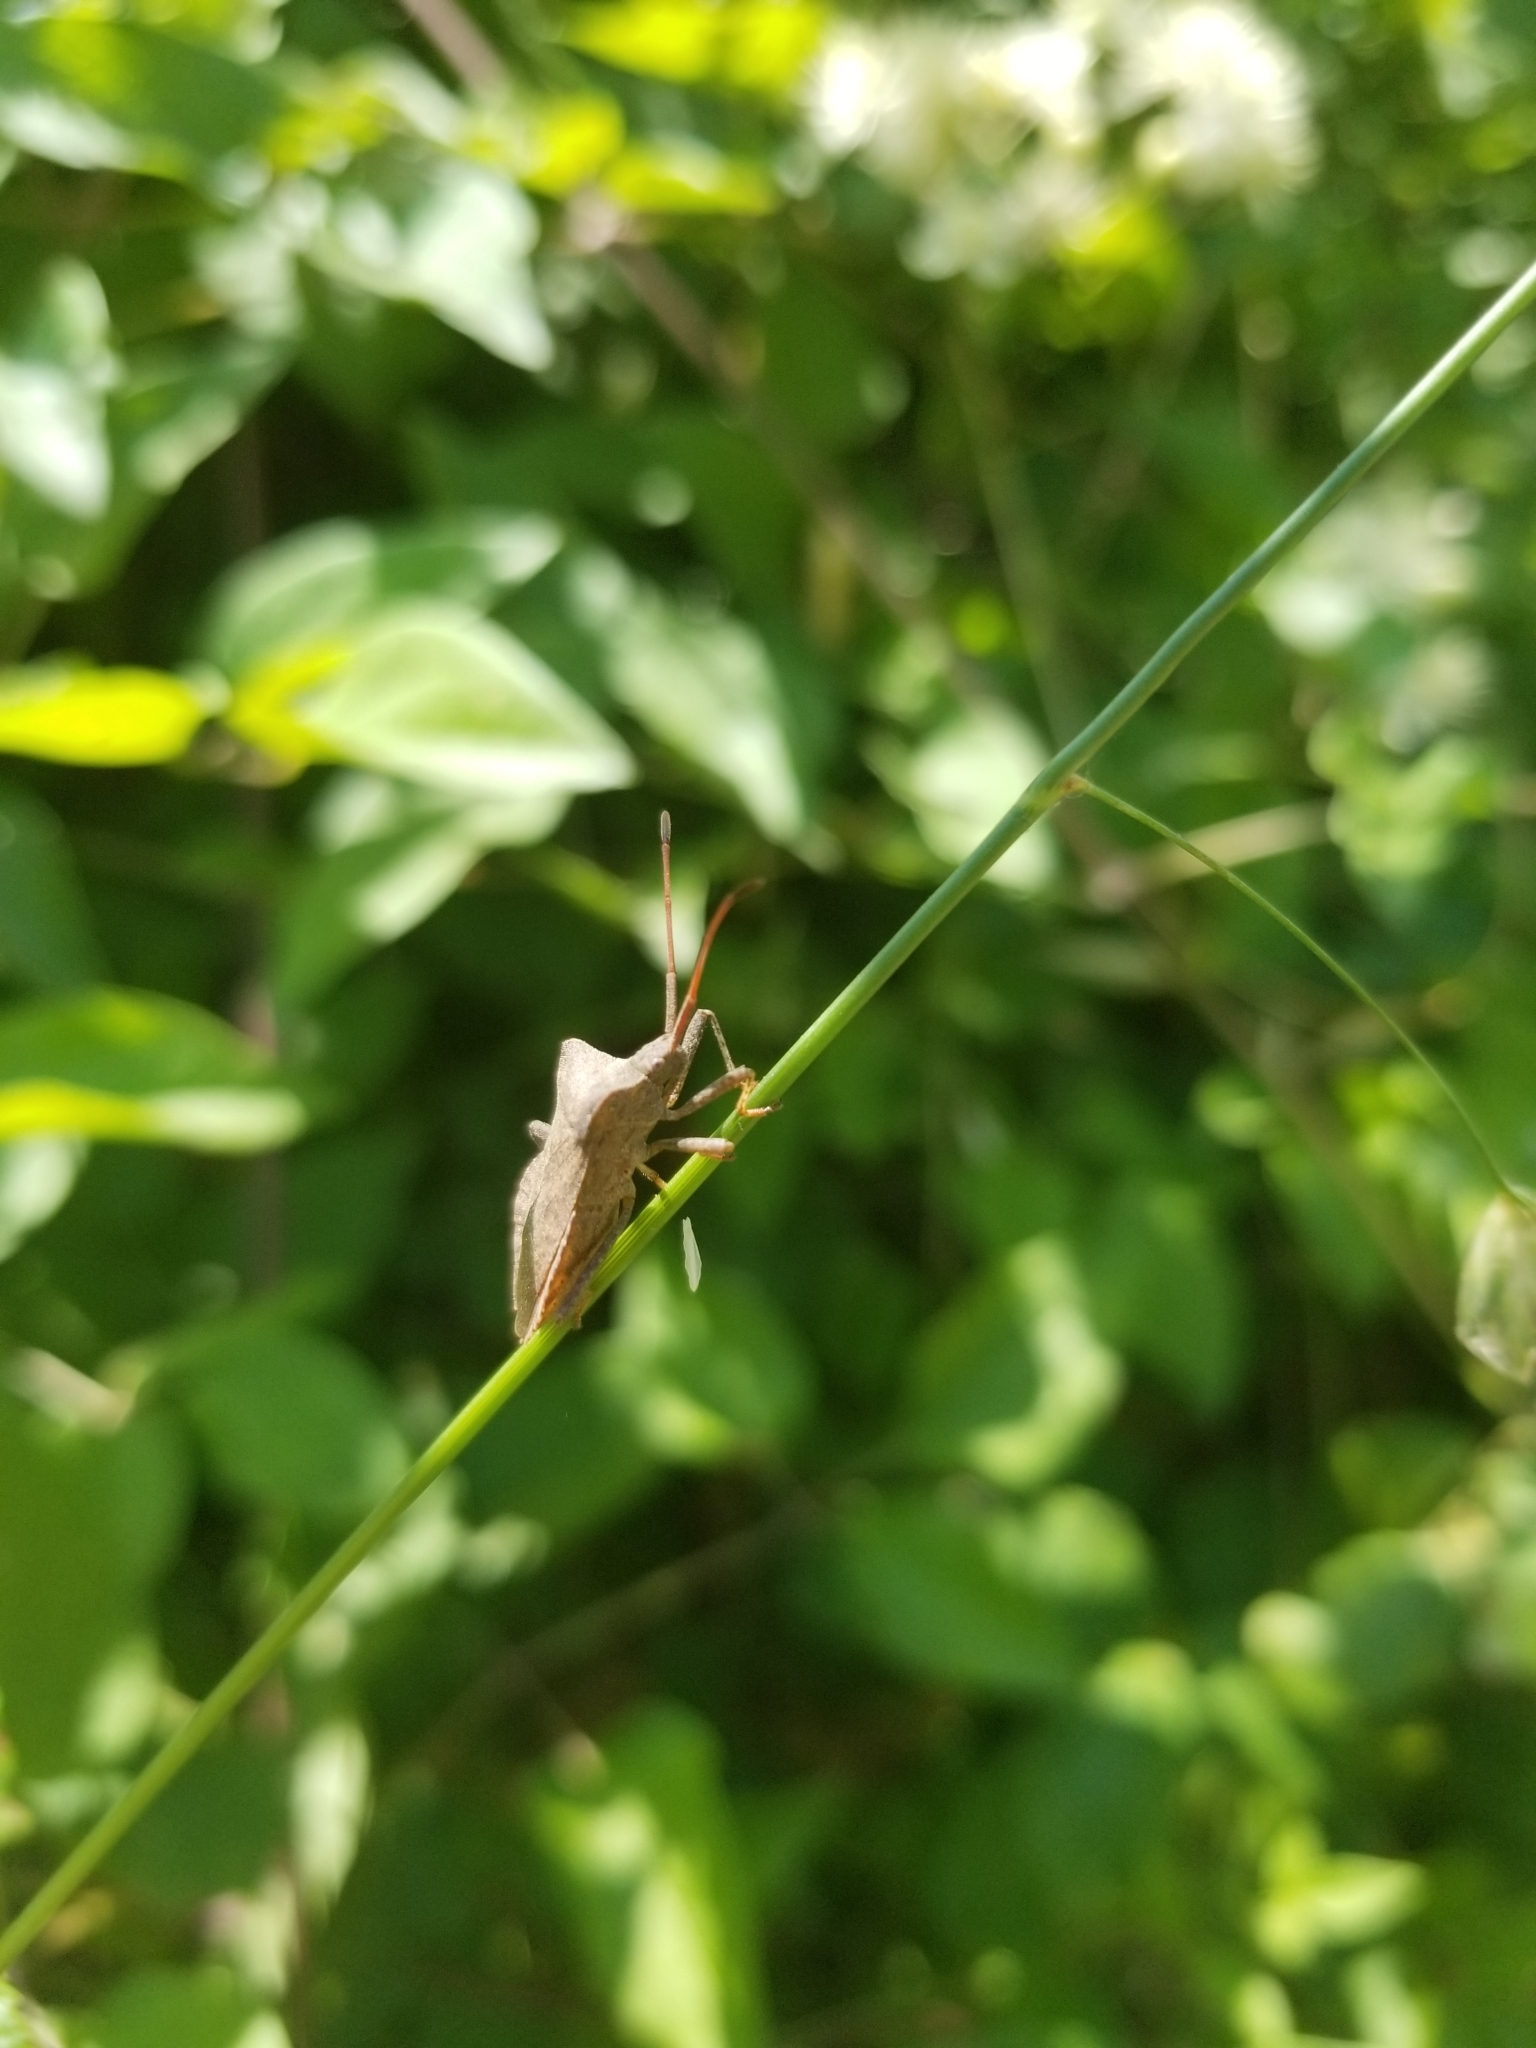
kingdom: Animalia
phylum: Arthropoda
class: Insecta
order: Hemiptera
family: Coreidae
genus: Coreus
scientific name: Coreus marginatus
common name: Dock bug
